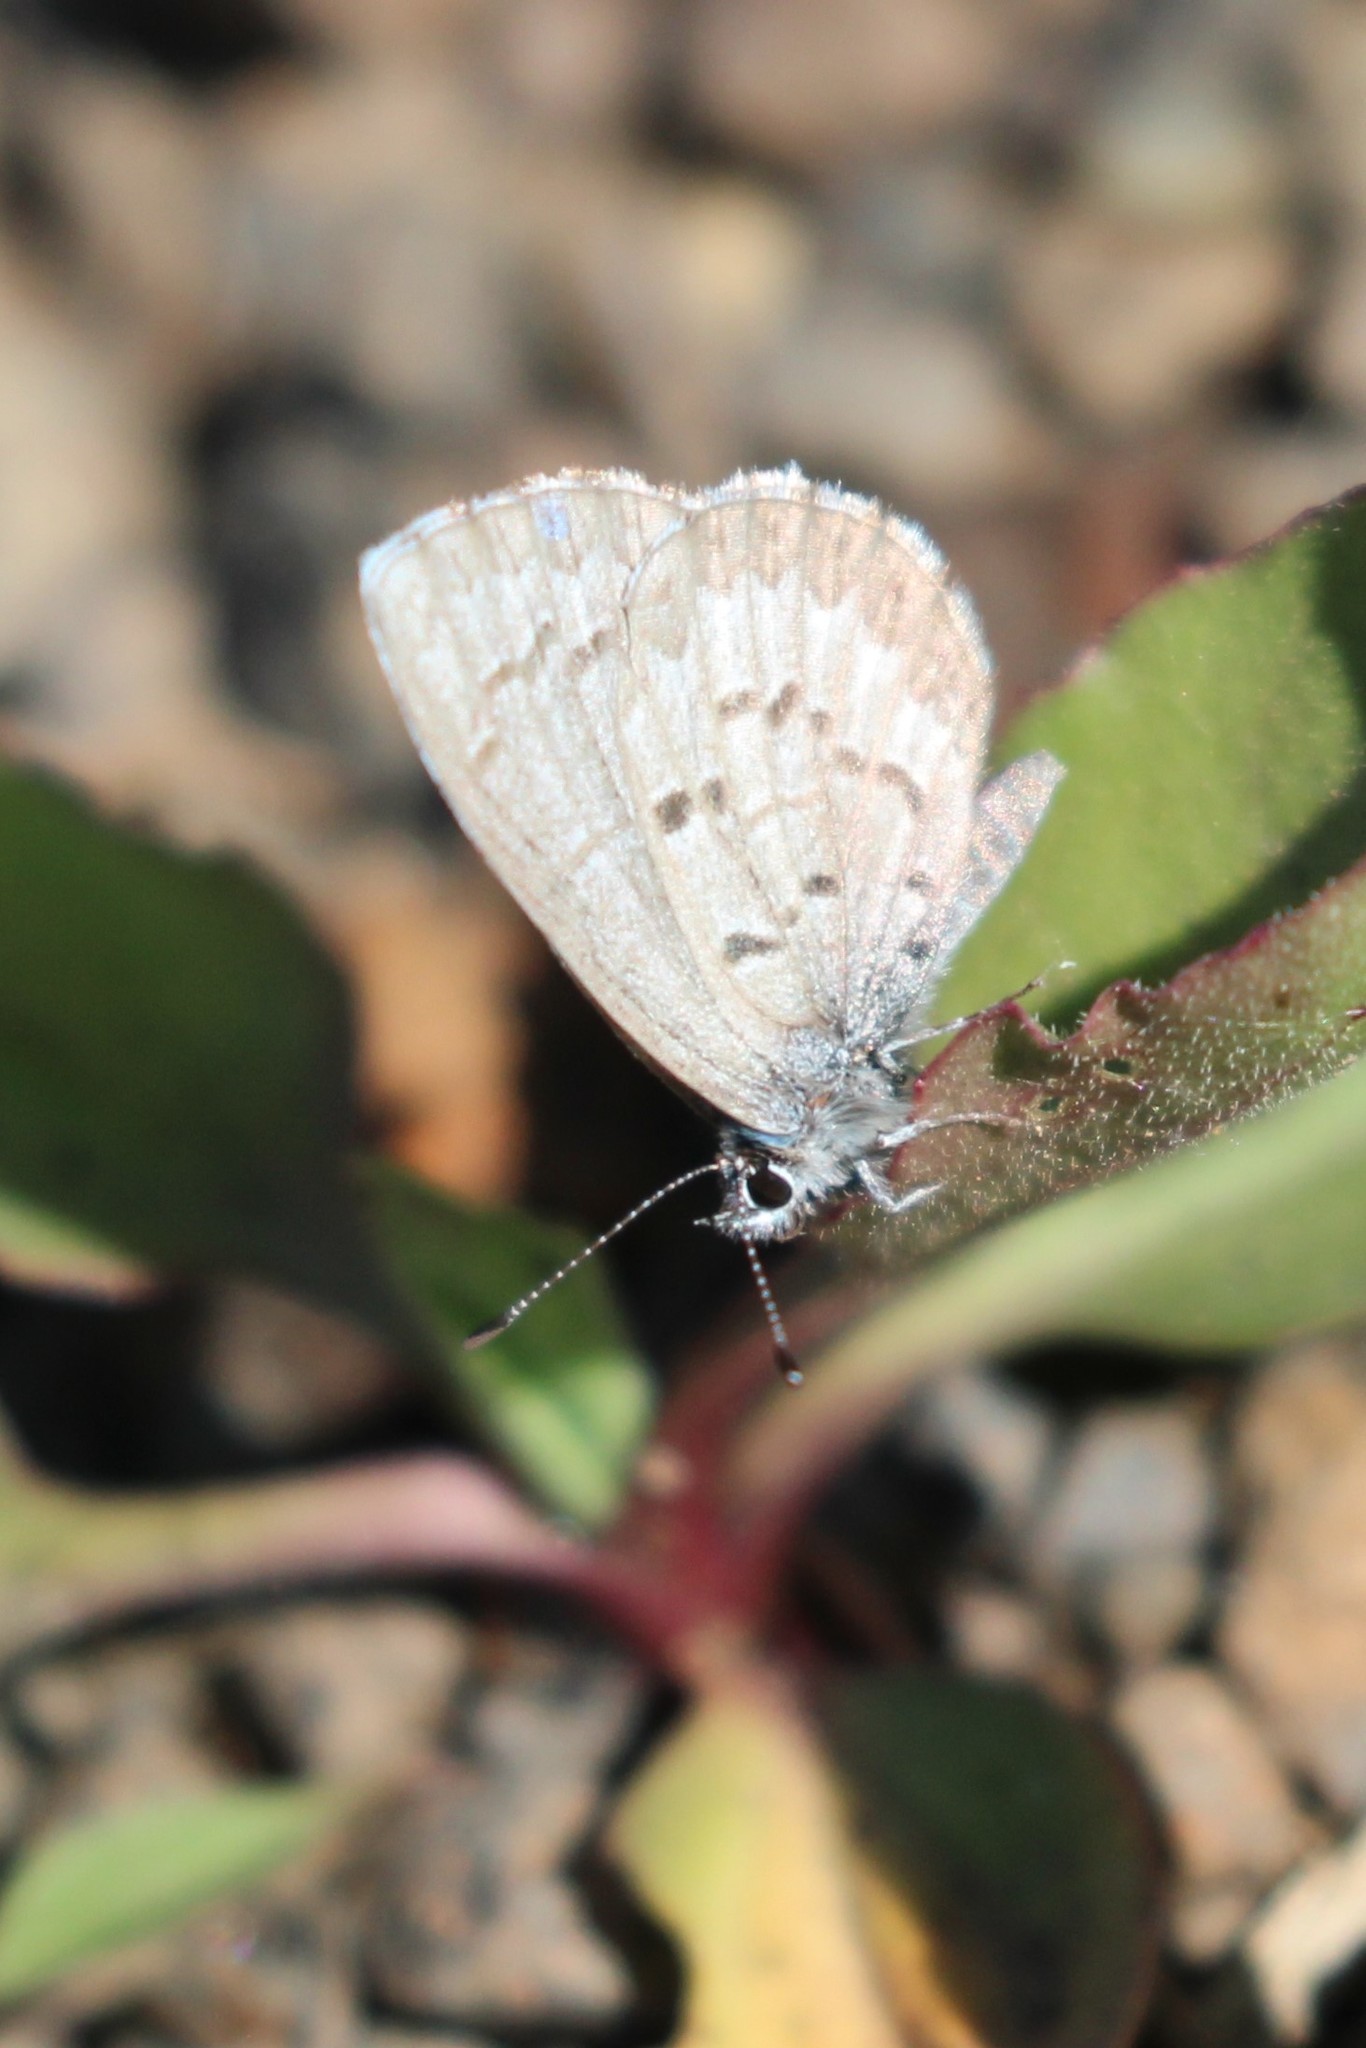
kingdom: Animalia
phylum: Arthropoda
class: Insecta
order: Lepidoptera
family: Lycaenidae
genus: Celastrina
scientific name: Celastrina lucia
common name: Lucia azure
